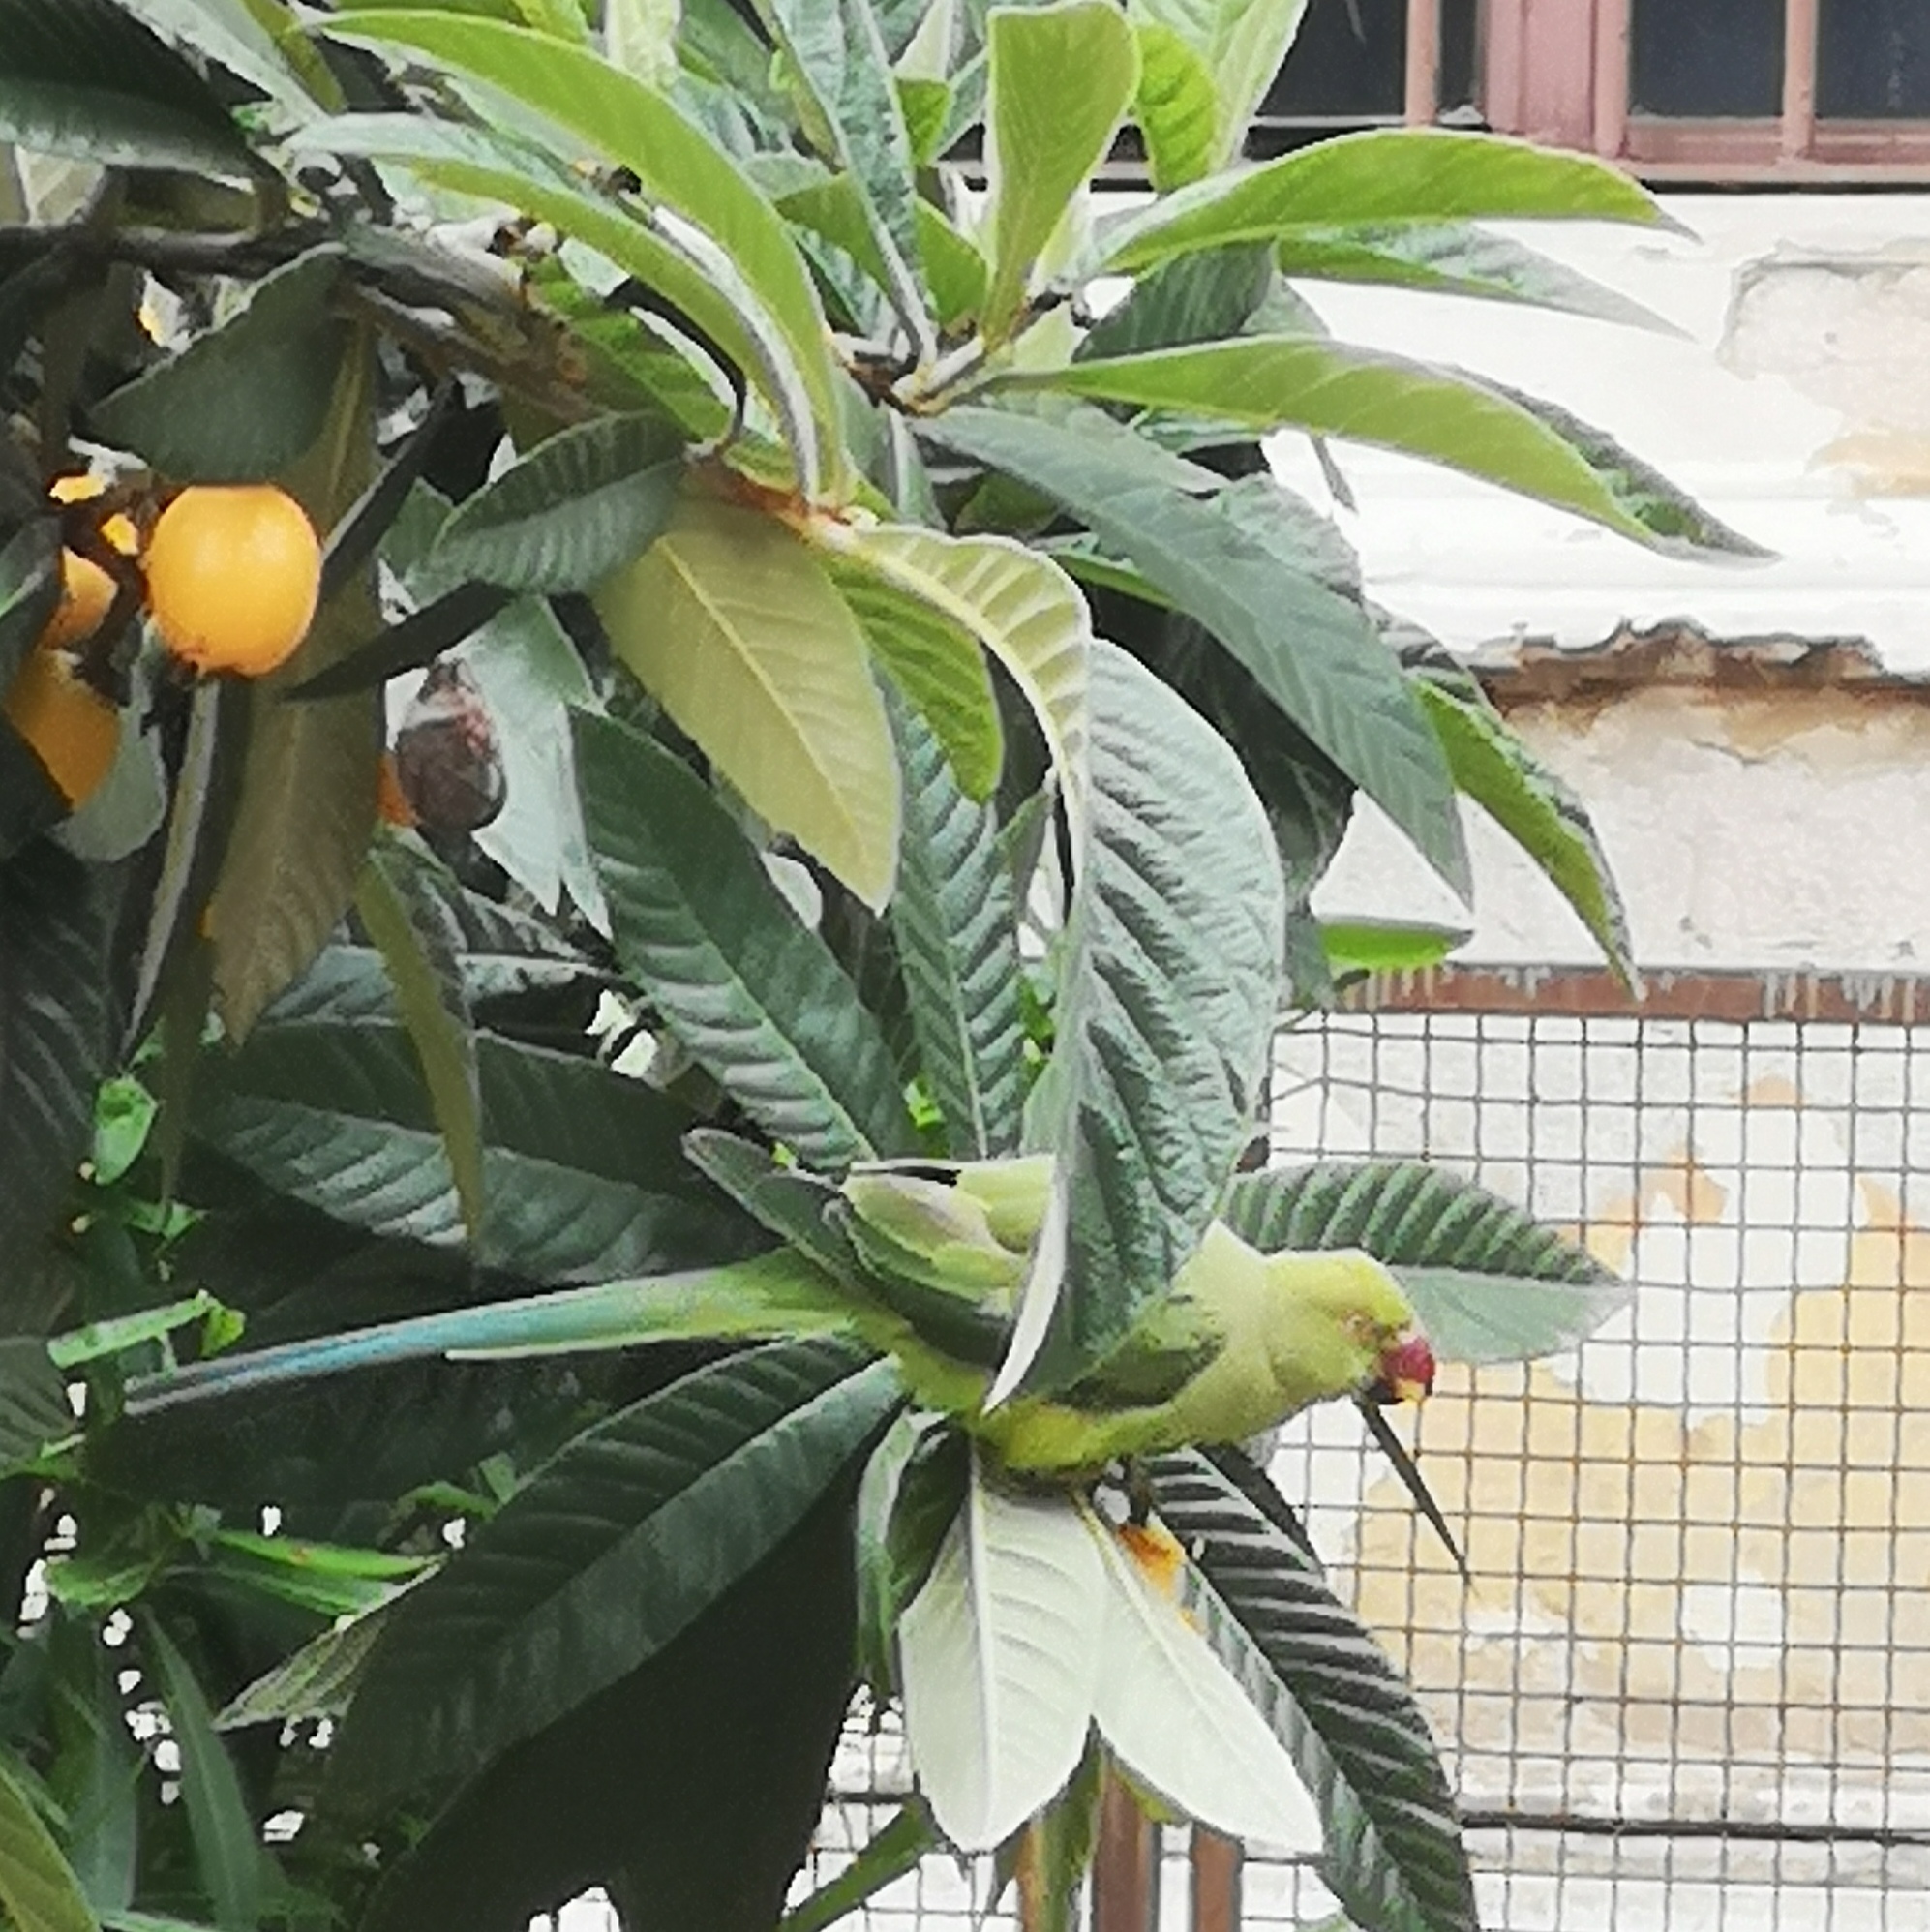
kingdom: Animalia
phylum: Chordata
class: Aves
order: Psittaciformes
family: Psittacidae
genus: Psittacula
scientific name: Psittacula krameri
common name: Rose-ringed parakeet
